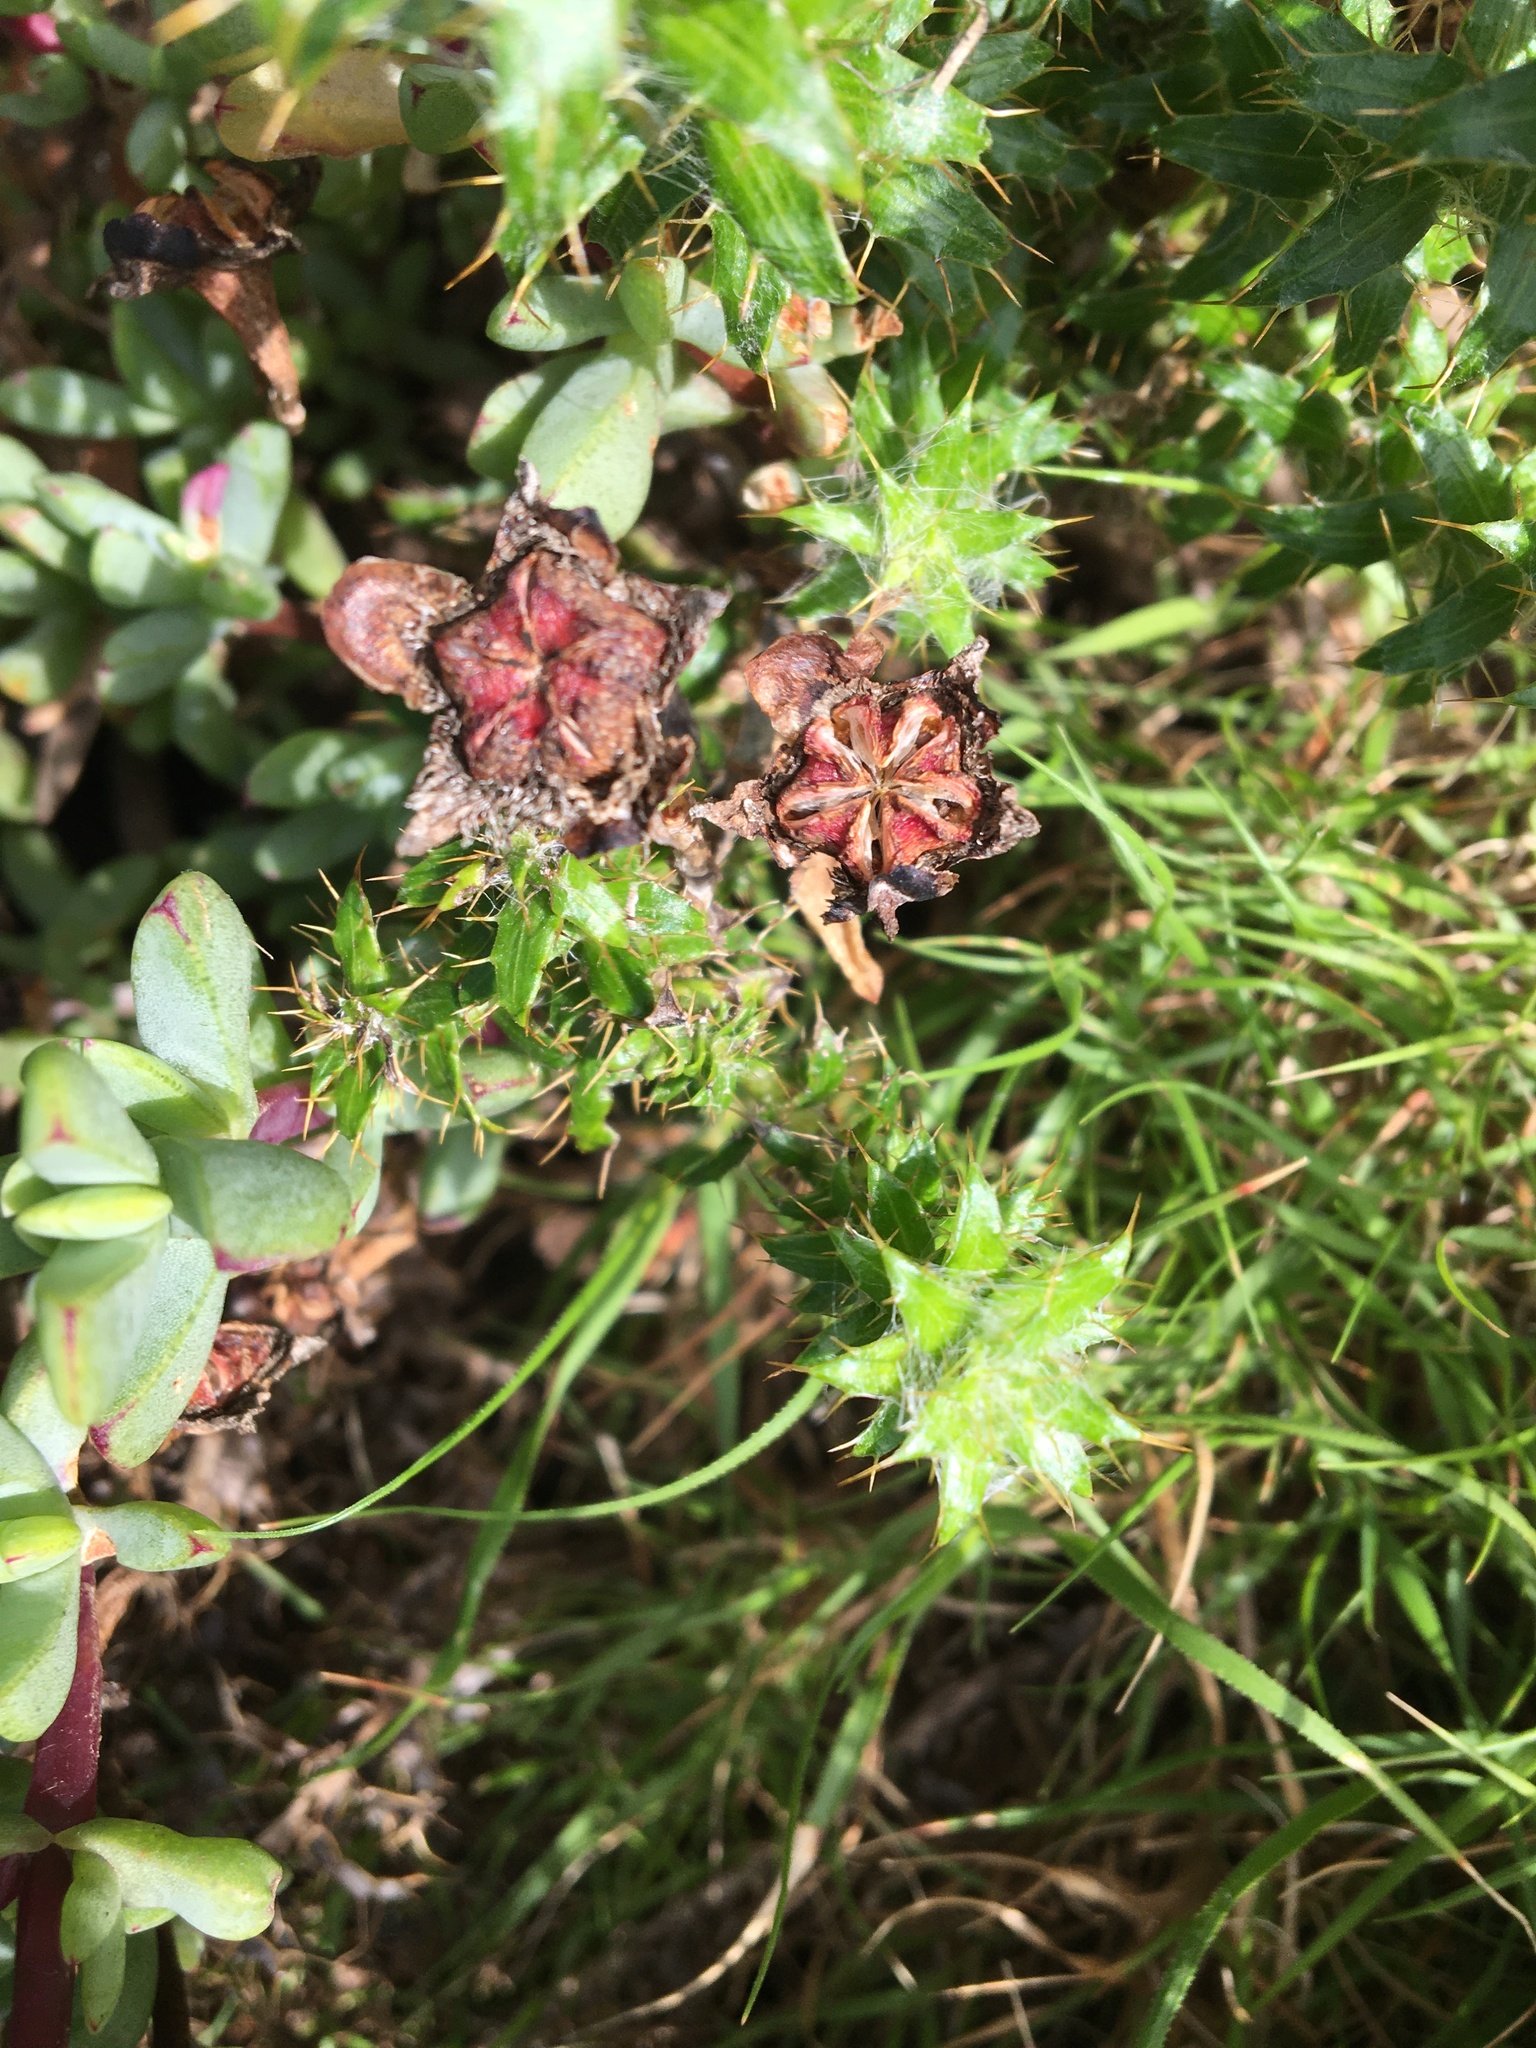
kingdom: Plantae
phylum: Tracheophyta
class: Magnoliopsida
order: Caryophyllales
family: Aizoaceae
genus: Oscularia
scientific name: Oscularia falciformis
